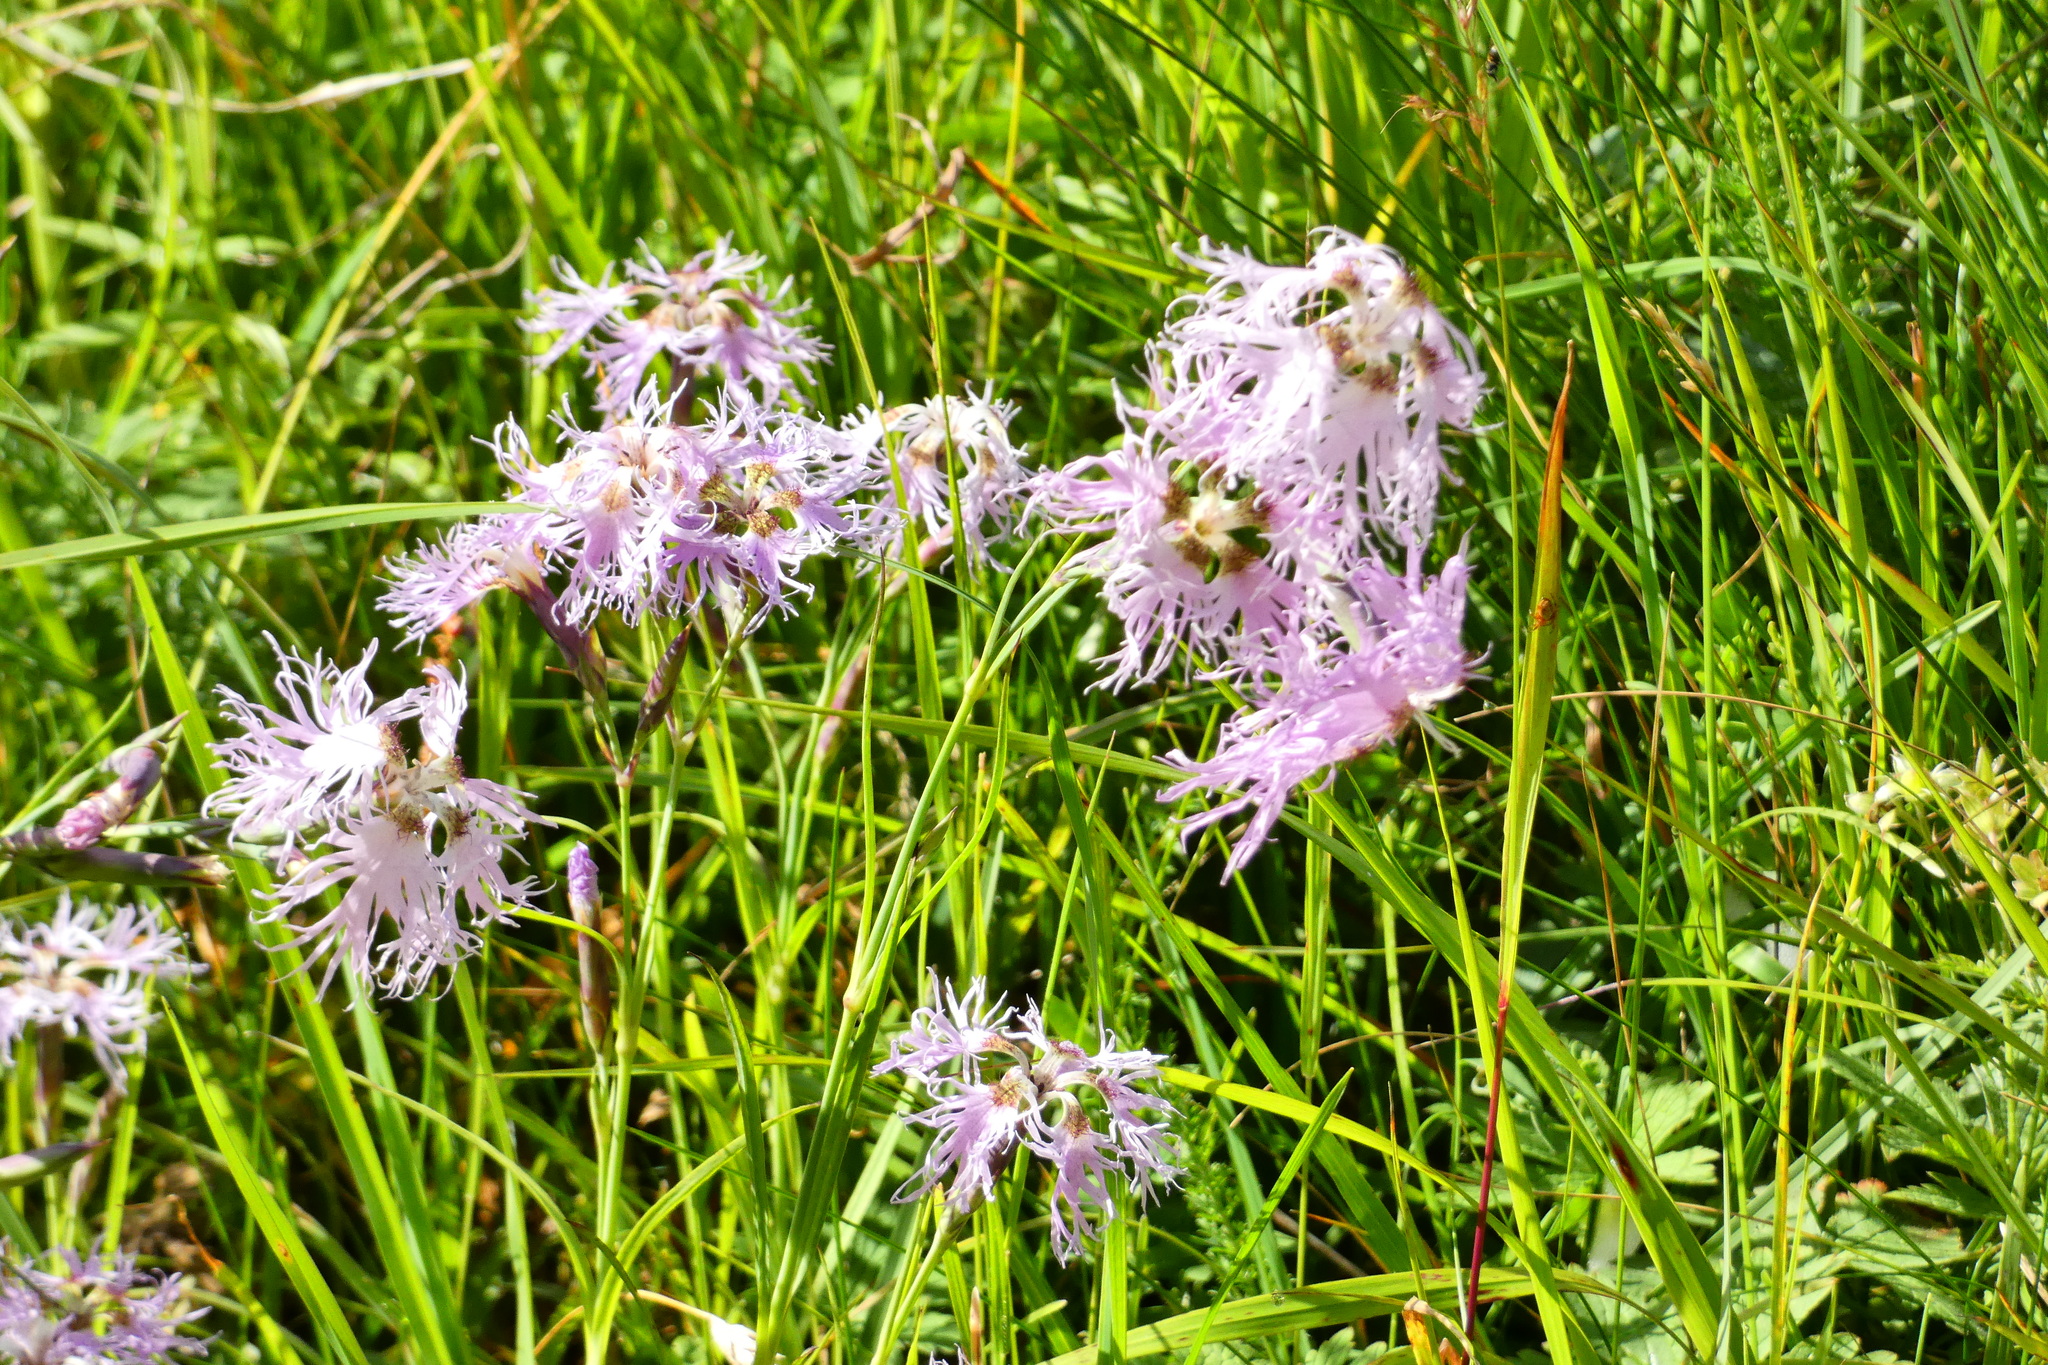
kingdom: Plantae
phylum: Tracheophyta
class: Magnoliopsida
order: Caryophyllales
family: Caryophyllaceae
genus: Dianthus
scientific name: Dianthus superbus
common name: Fringed pink
